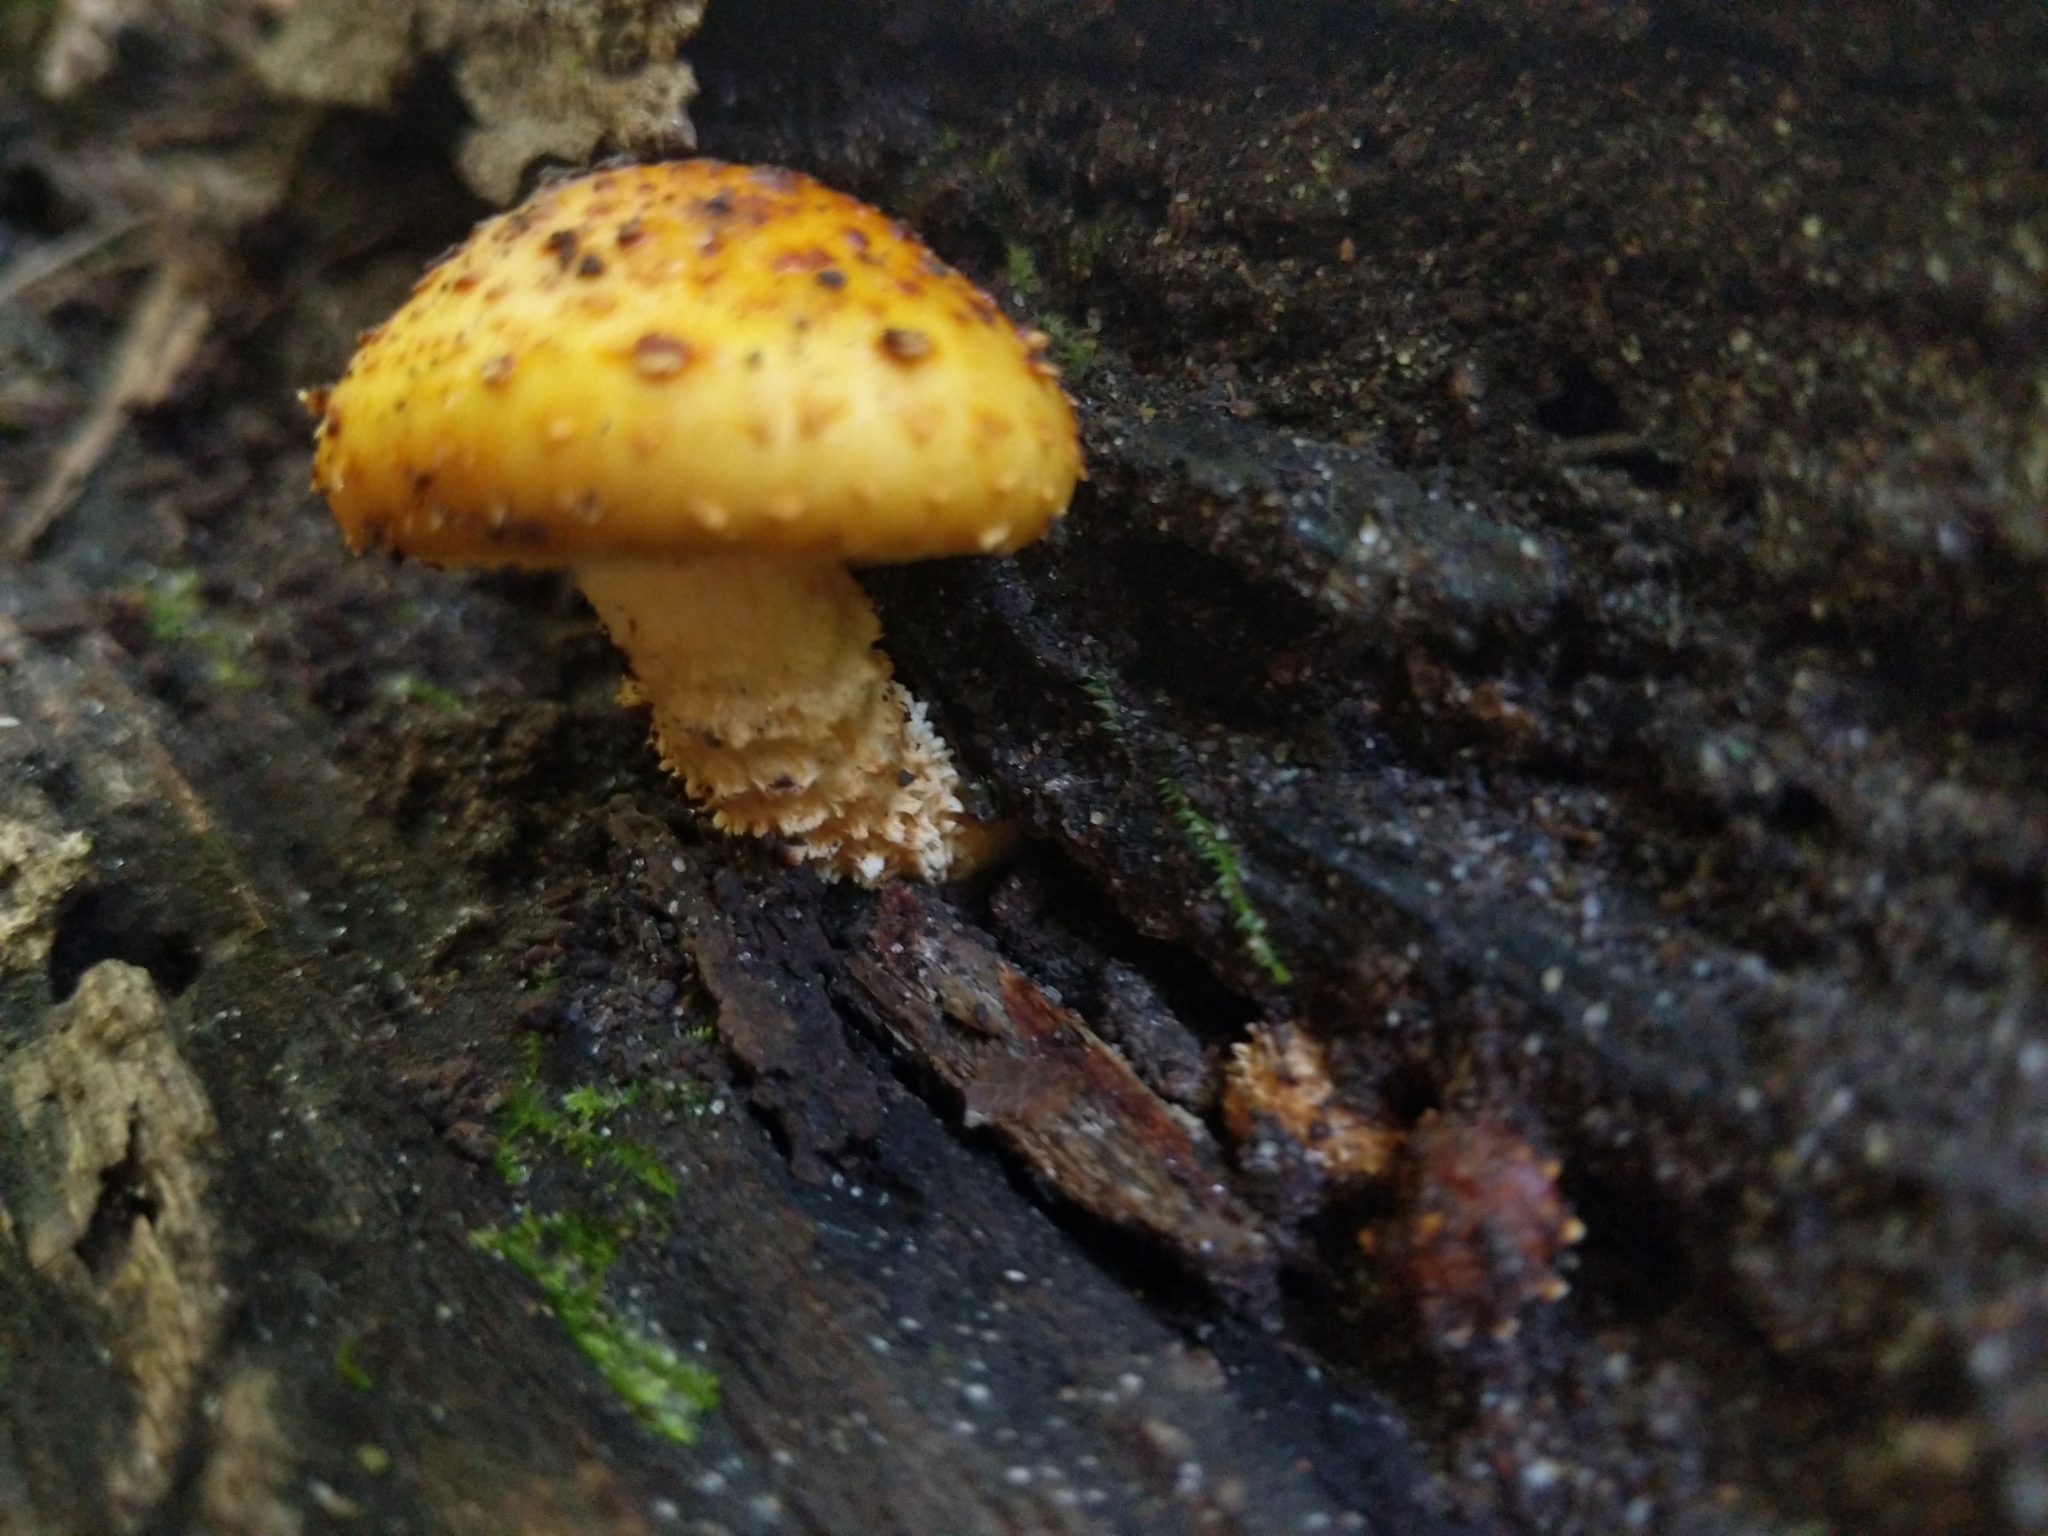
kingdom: Fungi
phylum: Basidiomycota
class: Agaricomycetes
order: Agaricales
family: Strophariaceae
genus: Pholiota
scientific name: Pholiota aurivella
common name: Golden scalycap
